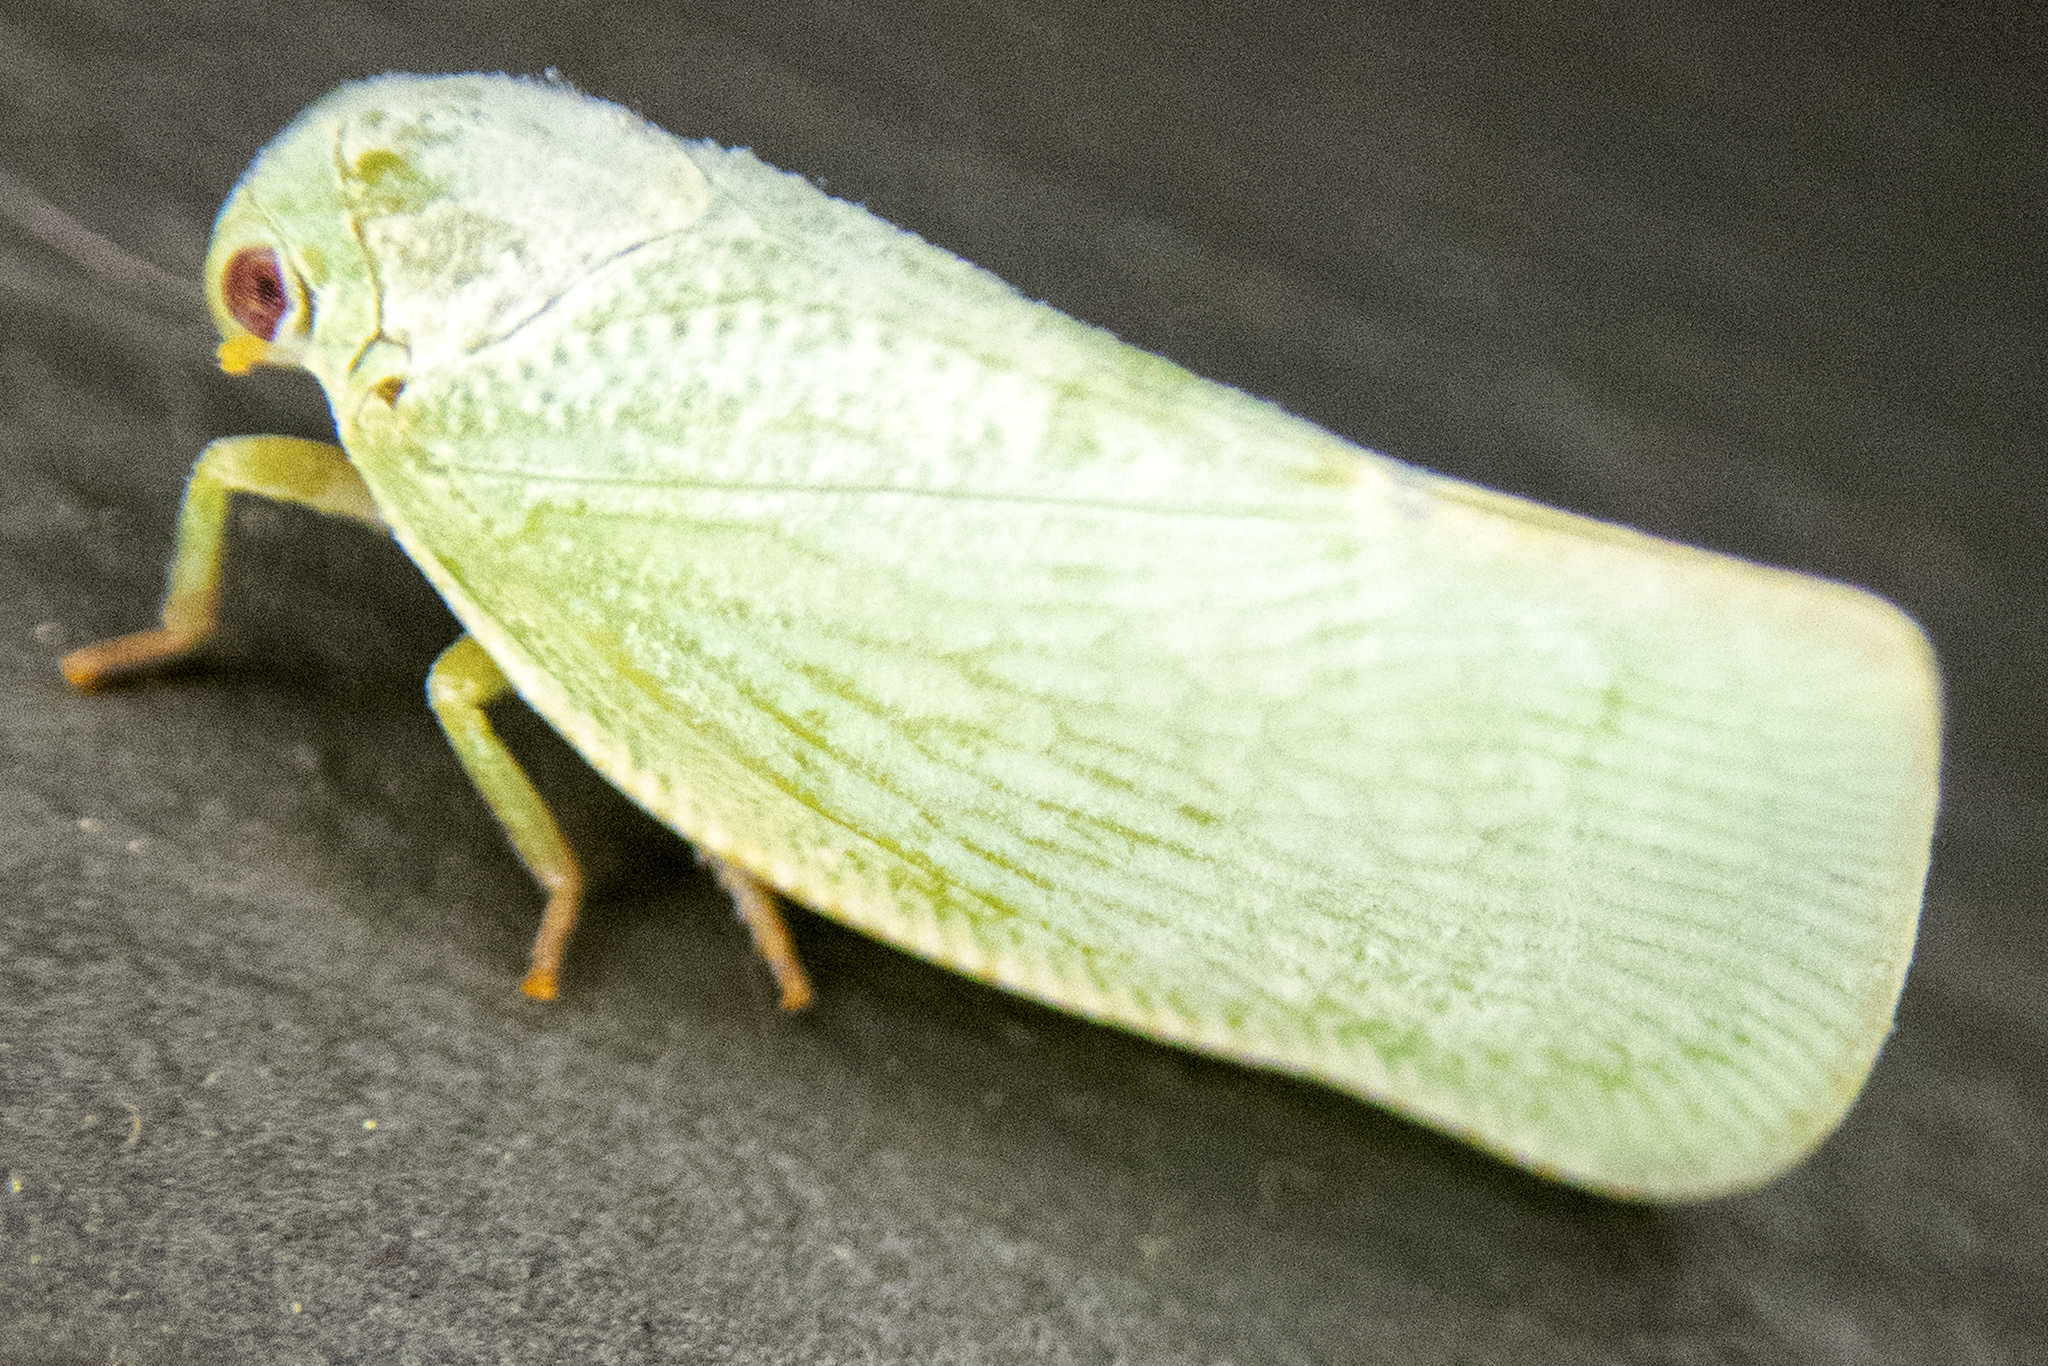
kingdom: Animalia
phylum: Arthropoda
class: Insecta
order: Hemiptera
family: Flatidae
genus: Flatormenis
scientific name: Flatormenis proxima
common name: Northern flatid planthopper
